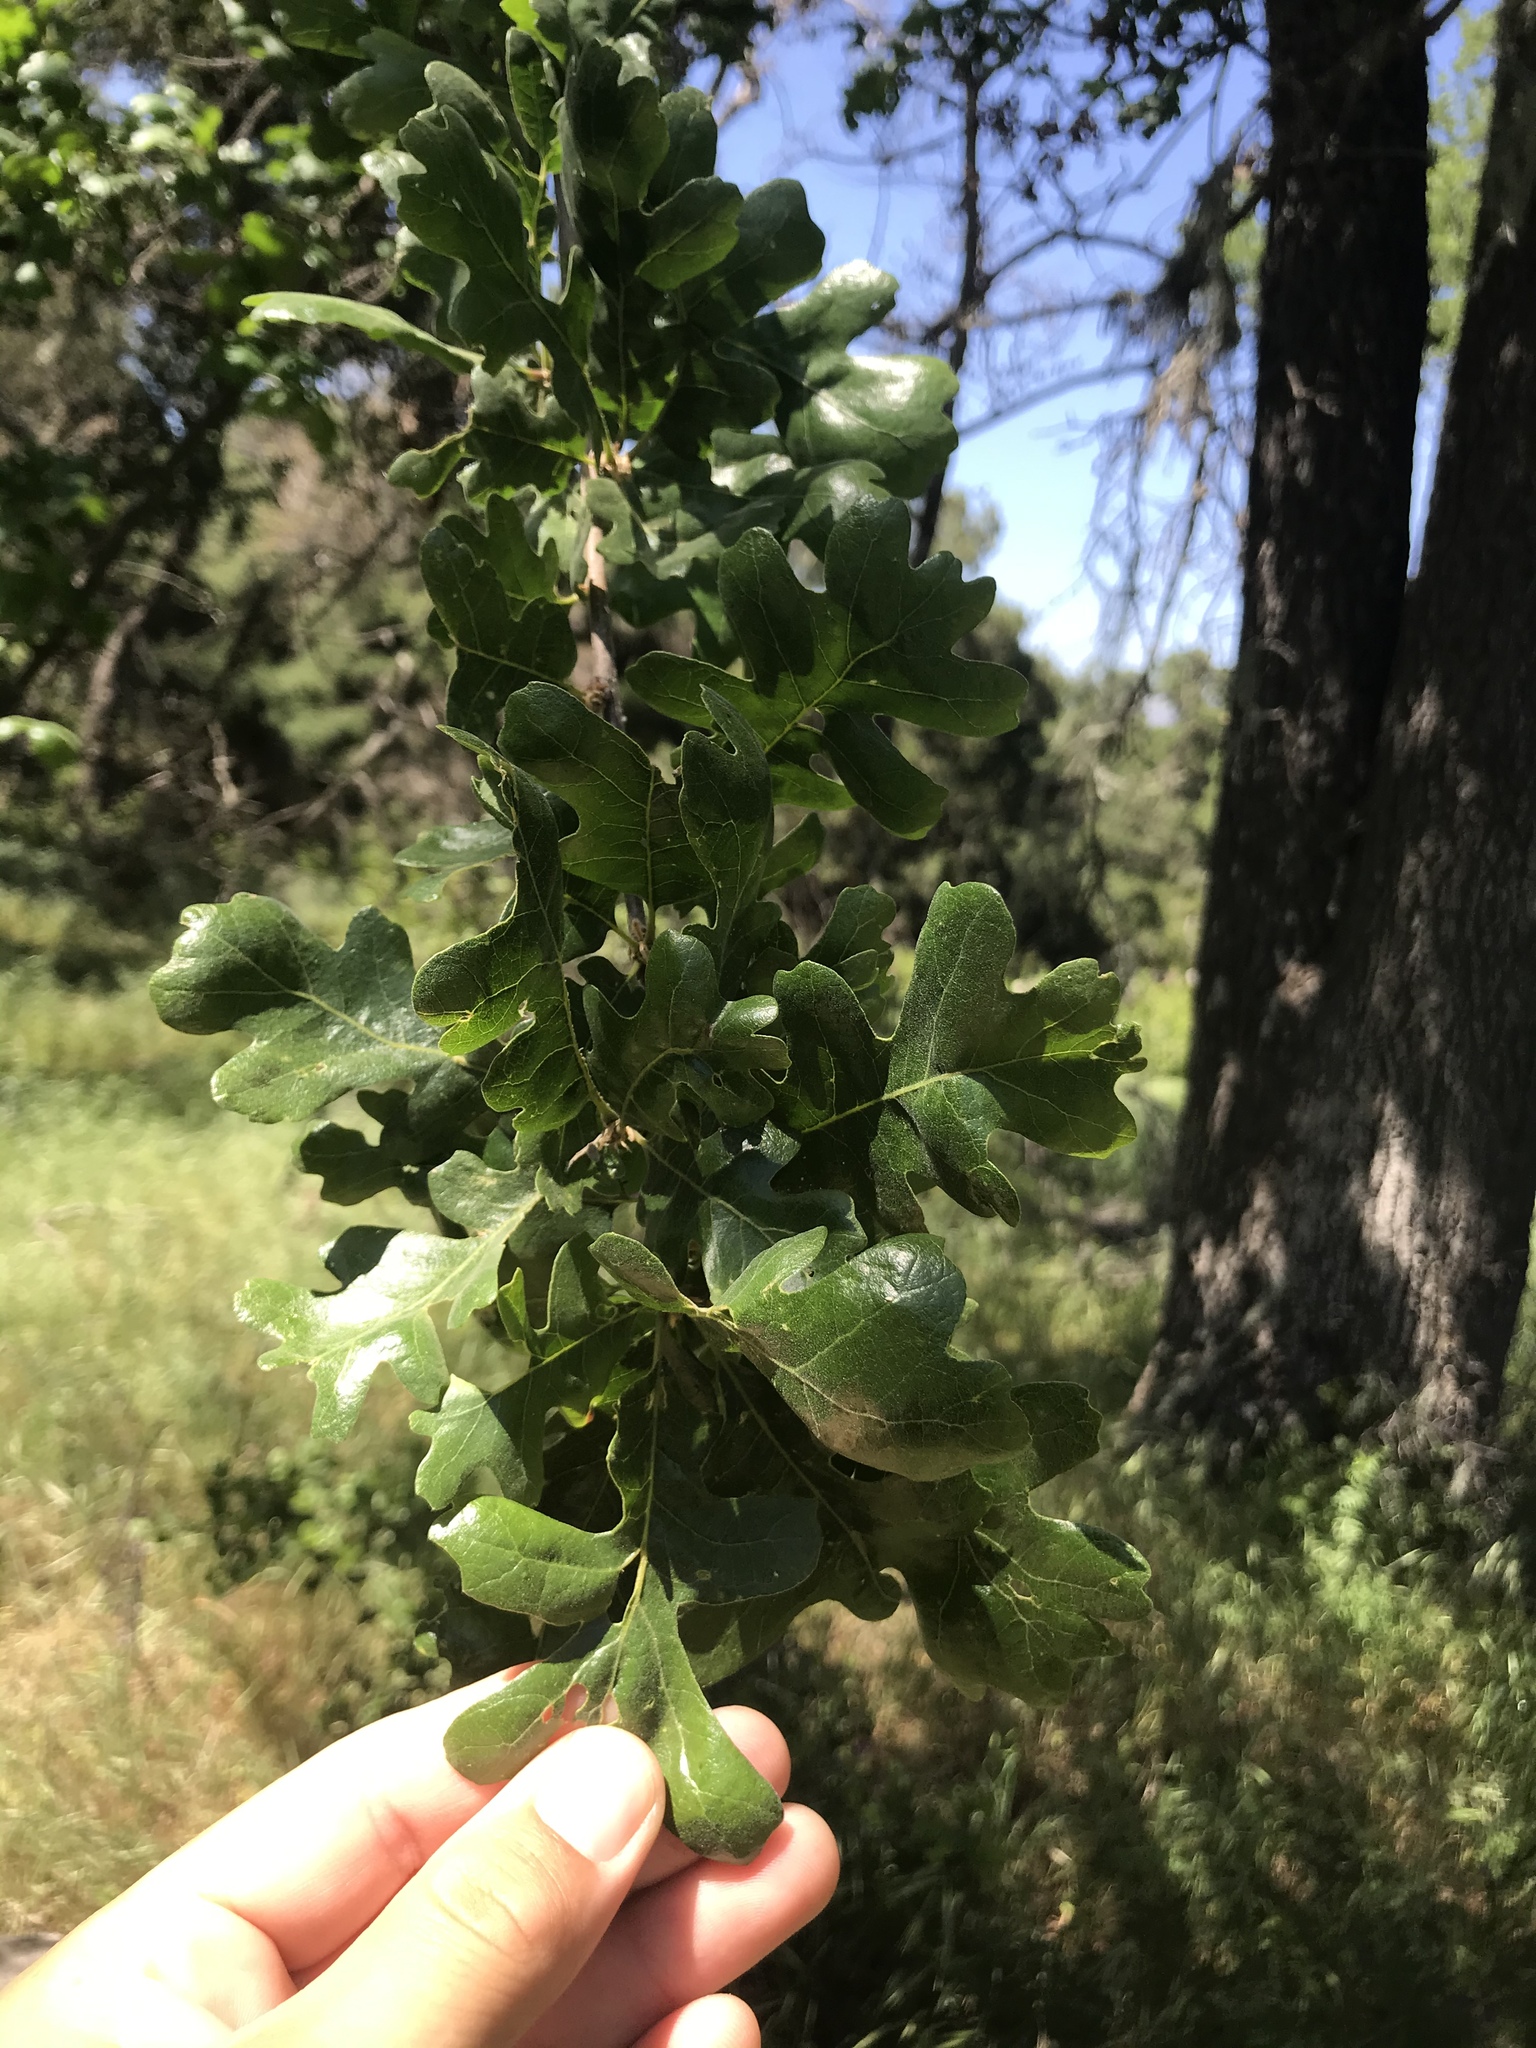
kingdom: Plantae
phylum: Tracheophyta
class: Magnoliopsida
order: Fagales
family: Fagaceae
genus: Quercus
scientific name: Quercus lobata
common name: Valley oak
